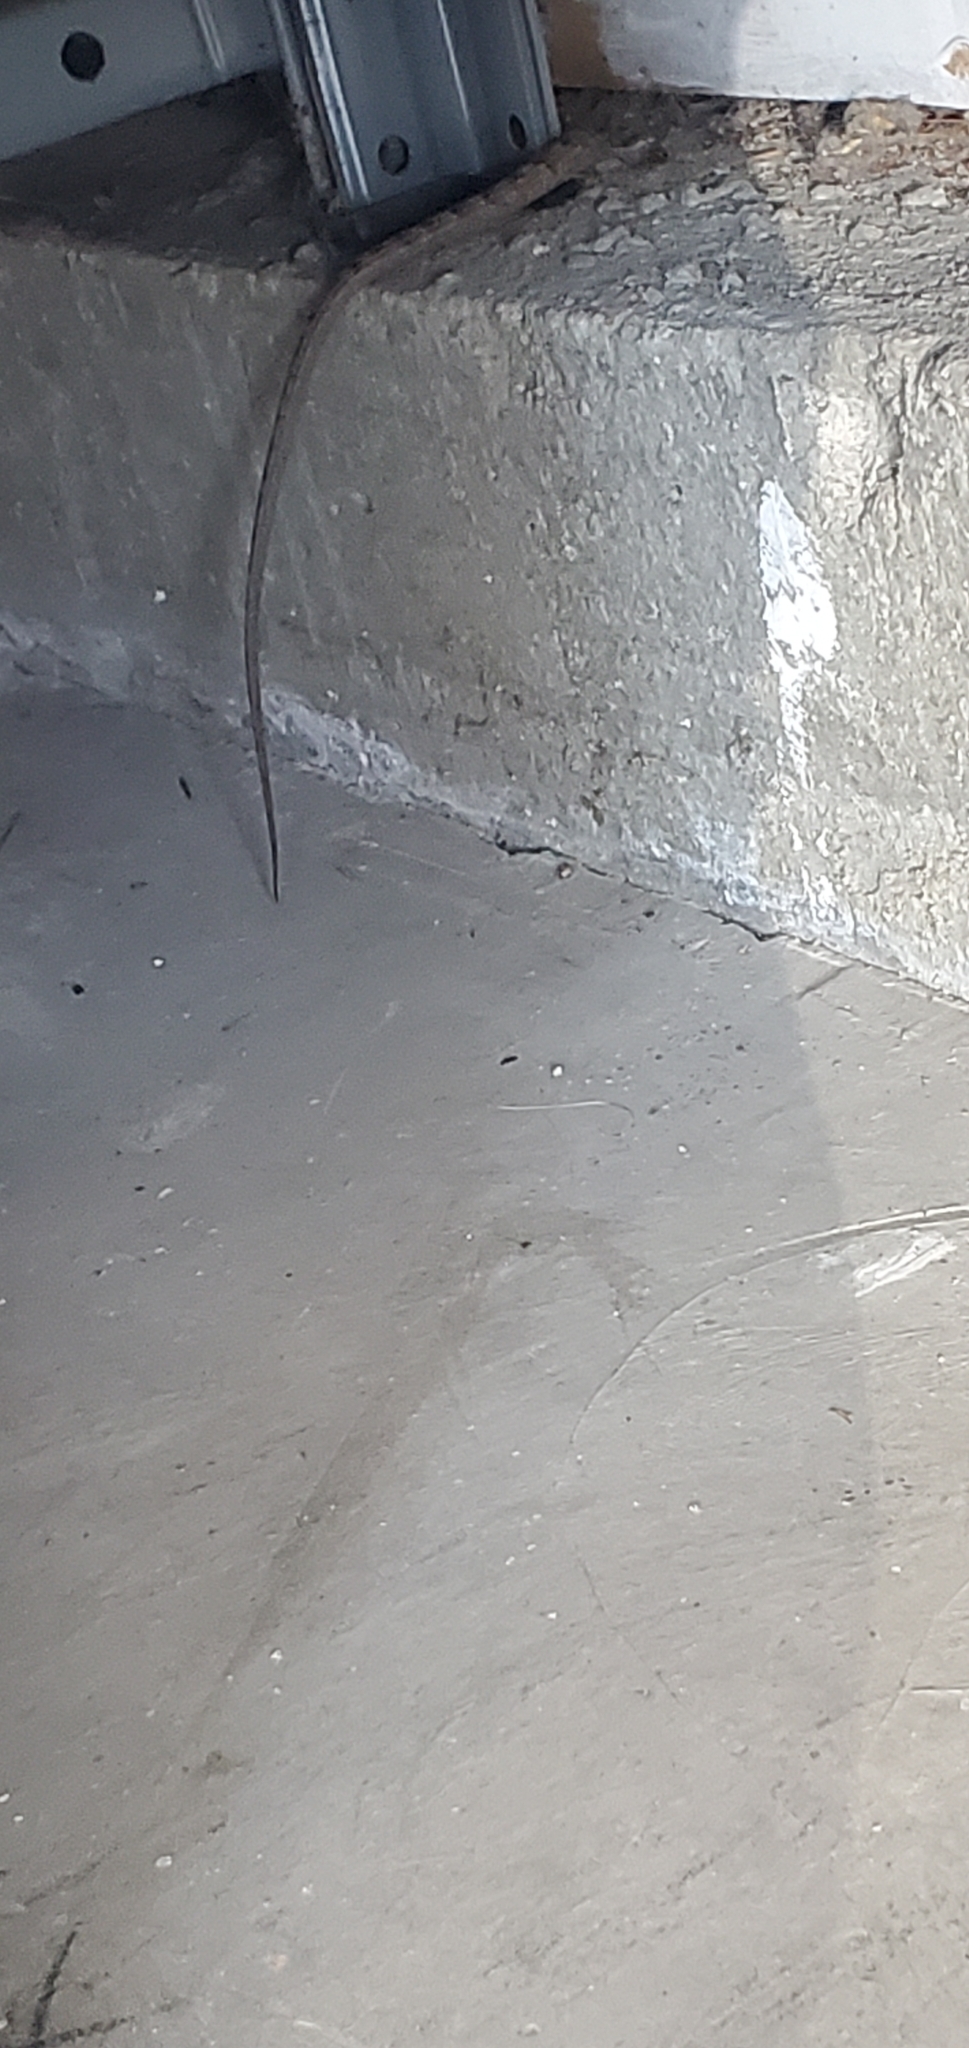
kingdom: Animalia
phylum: Chordata
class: Squamata
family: Anguidae
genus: Elgaria
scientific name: Elgaria multicarinata
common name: Southern alligator lizard
